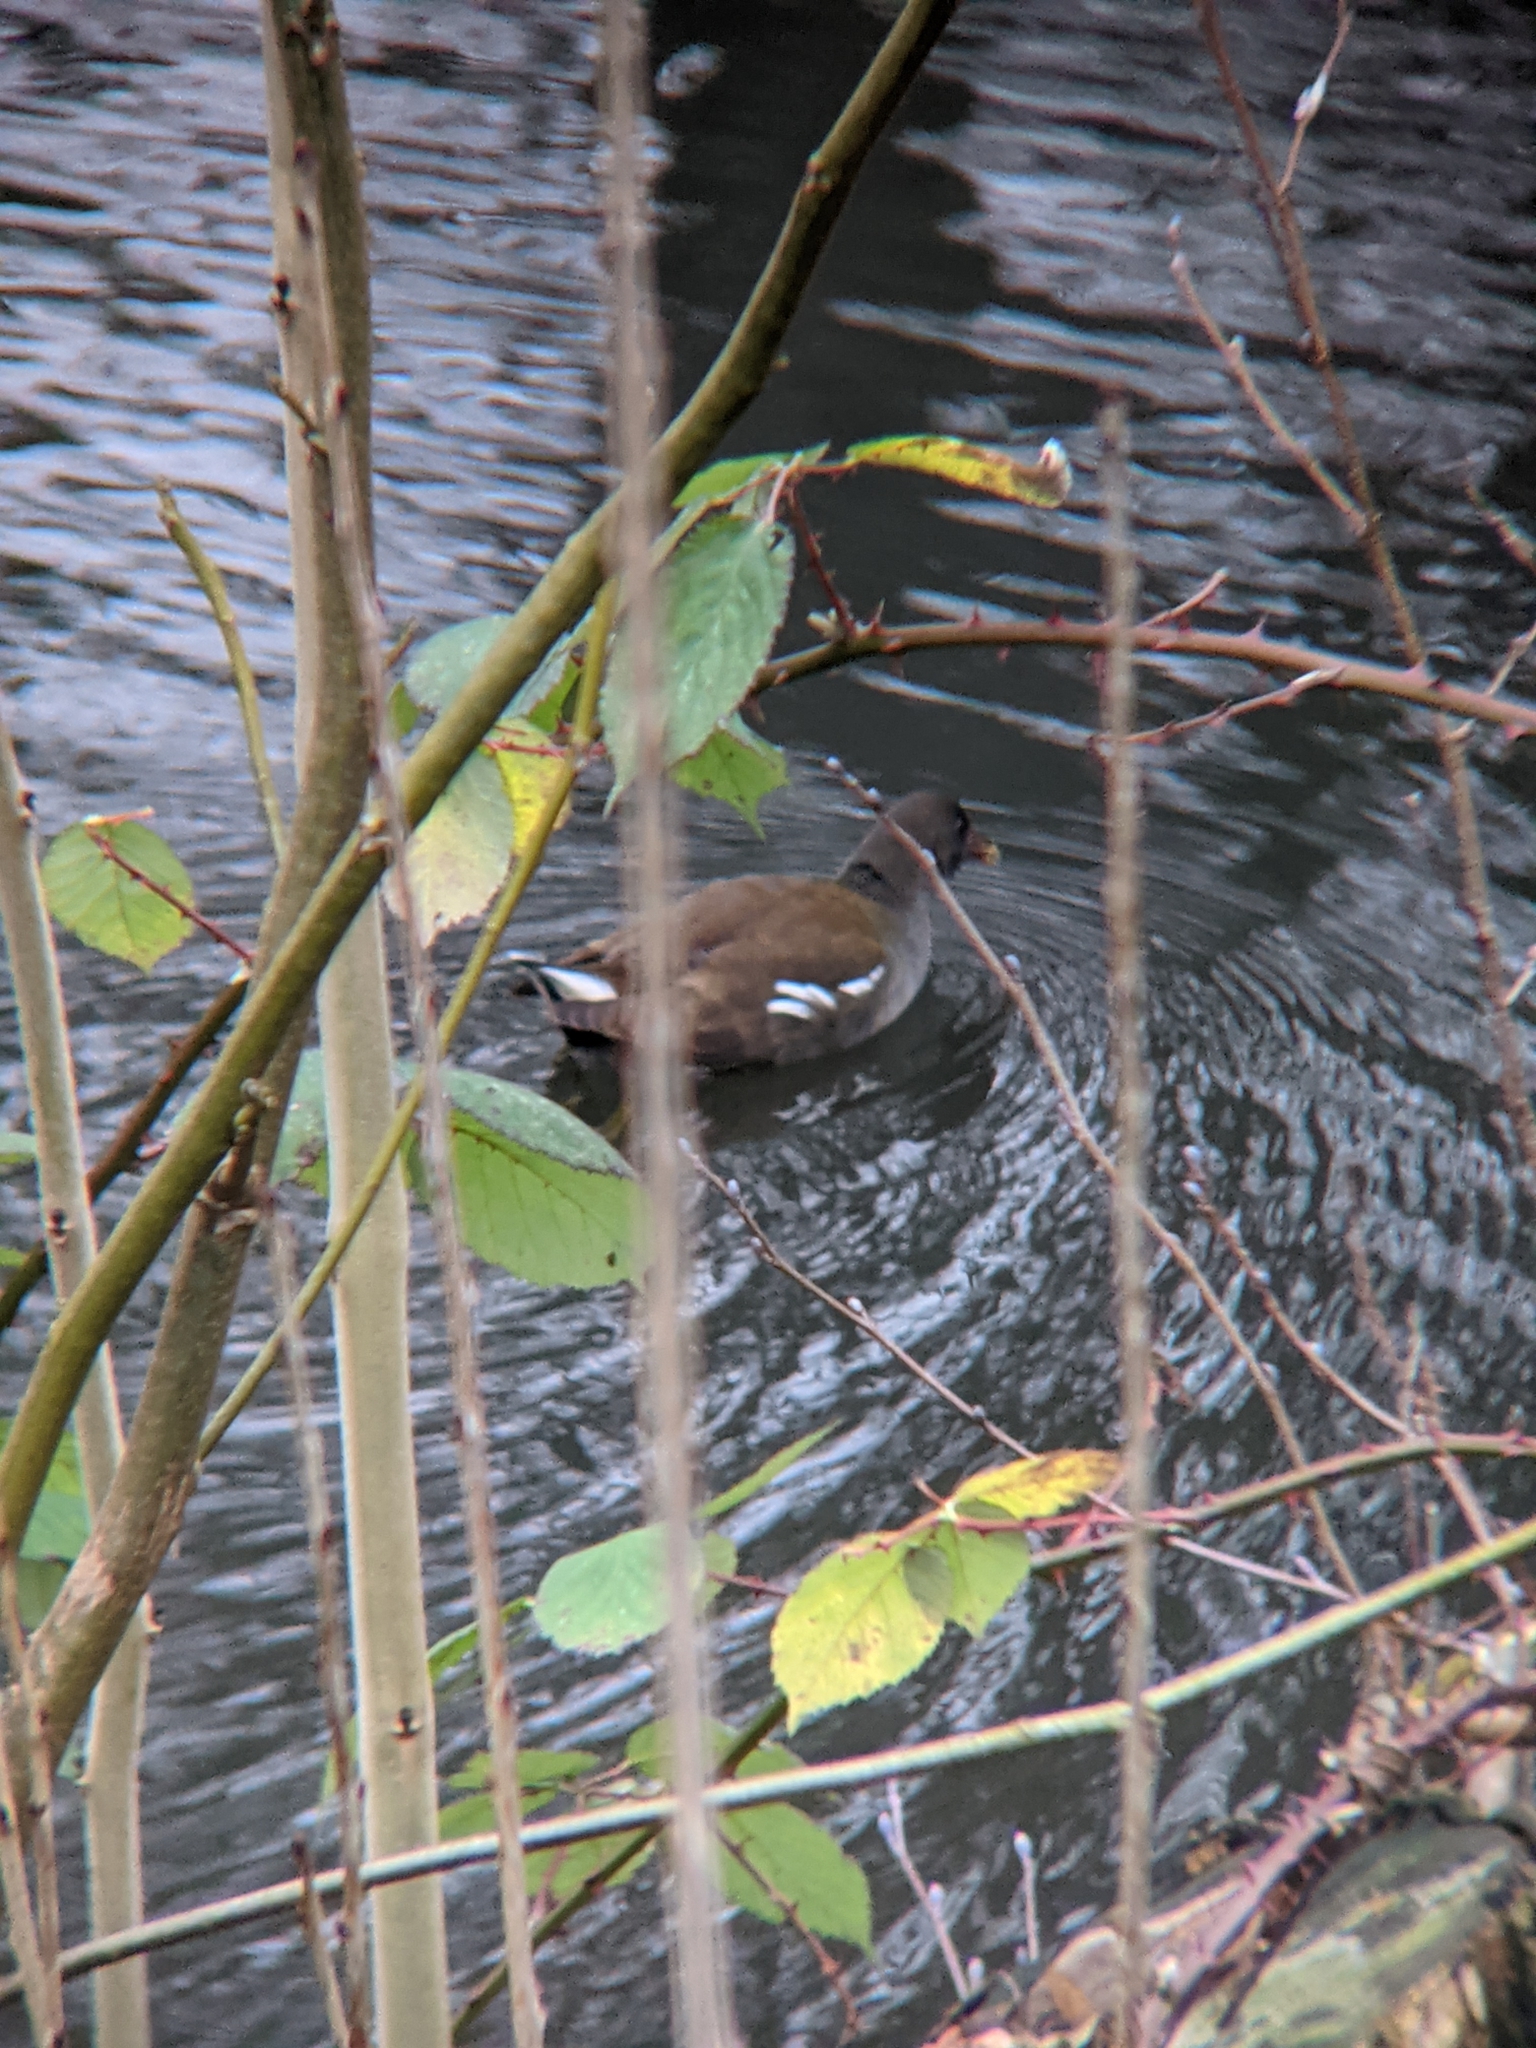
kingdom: Animalia
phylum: Chordata
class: Aves
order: Gruiformes
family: Rallidae
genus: Gallinula
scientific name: Gallinula chloropus
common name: Common moorhen
